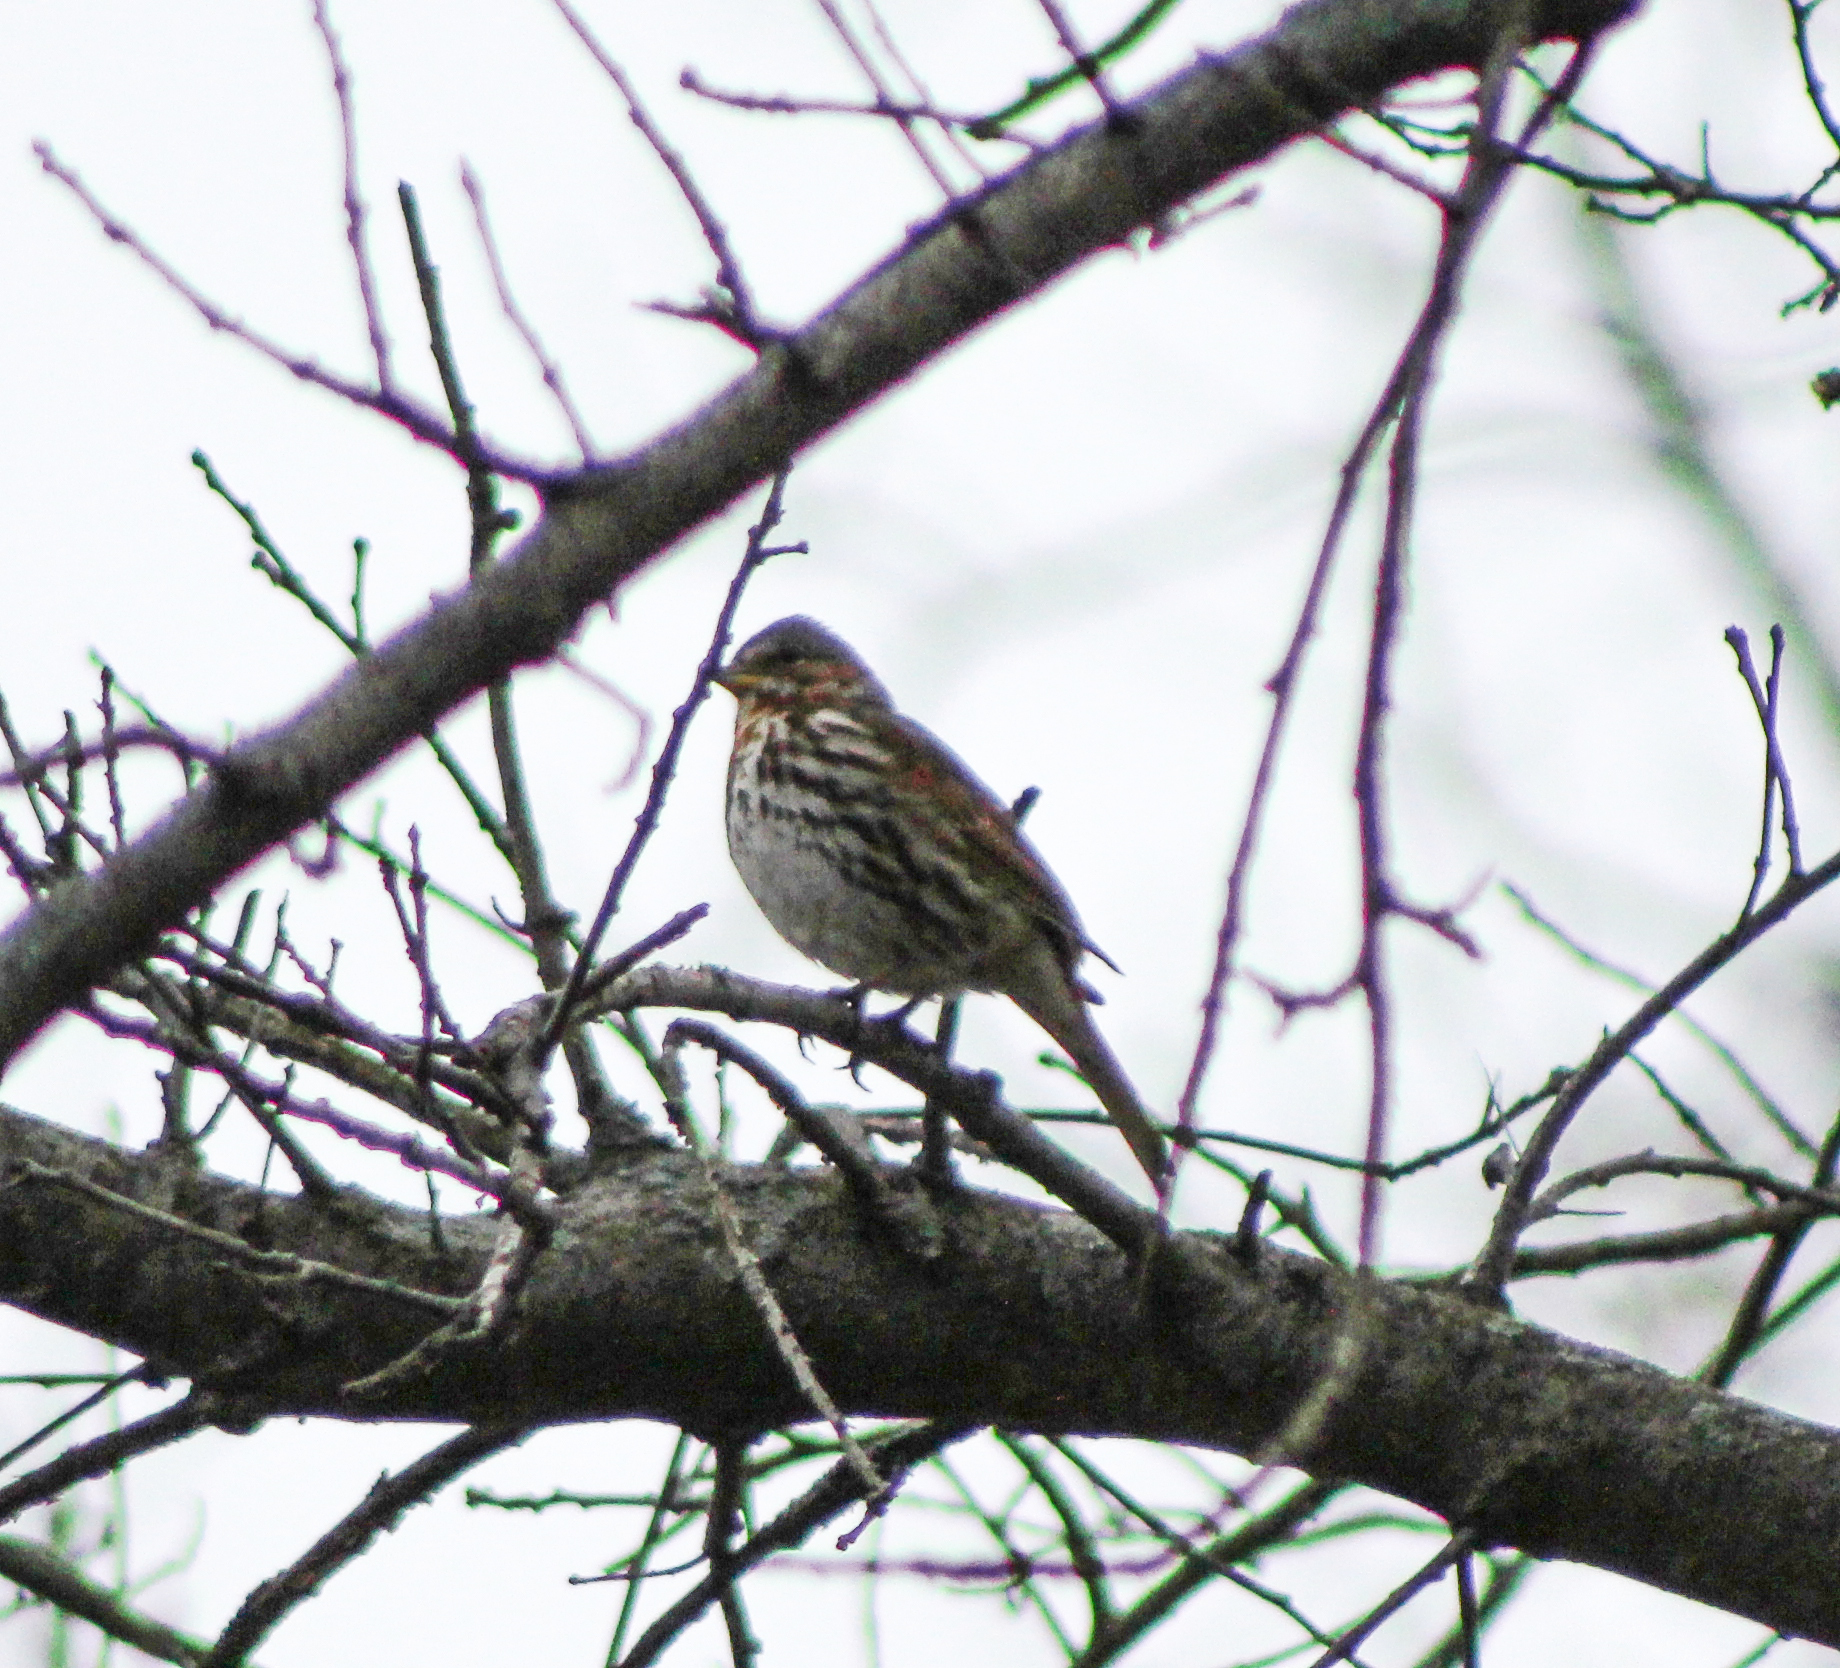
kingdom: Animalia
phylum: Chordata
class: Aves
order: Passeriformes
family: Passerellidae
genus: Passerella
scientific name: Passerella iliaca
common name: Fox sparrow
